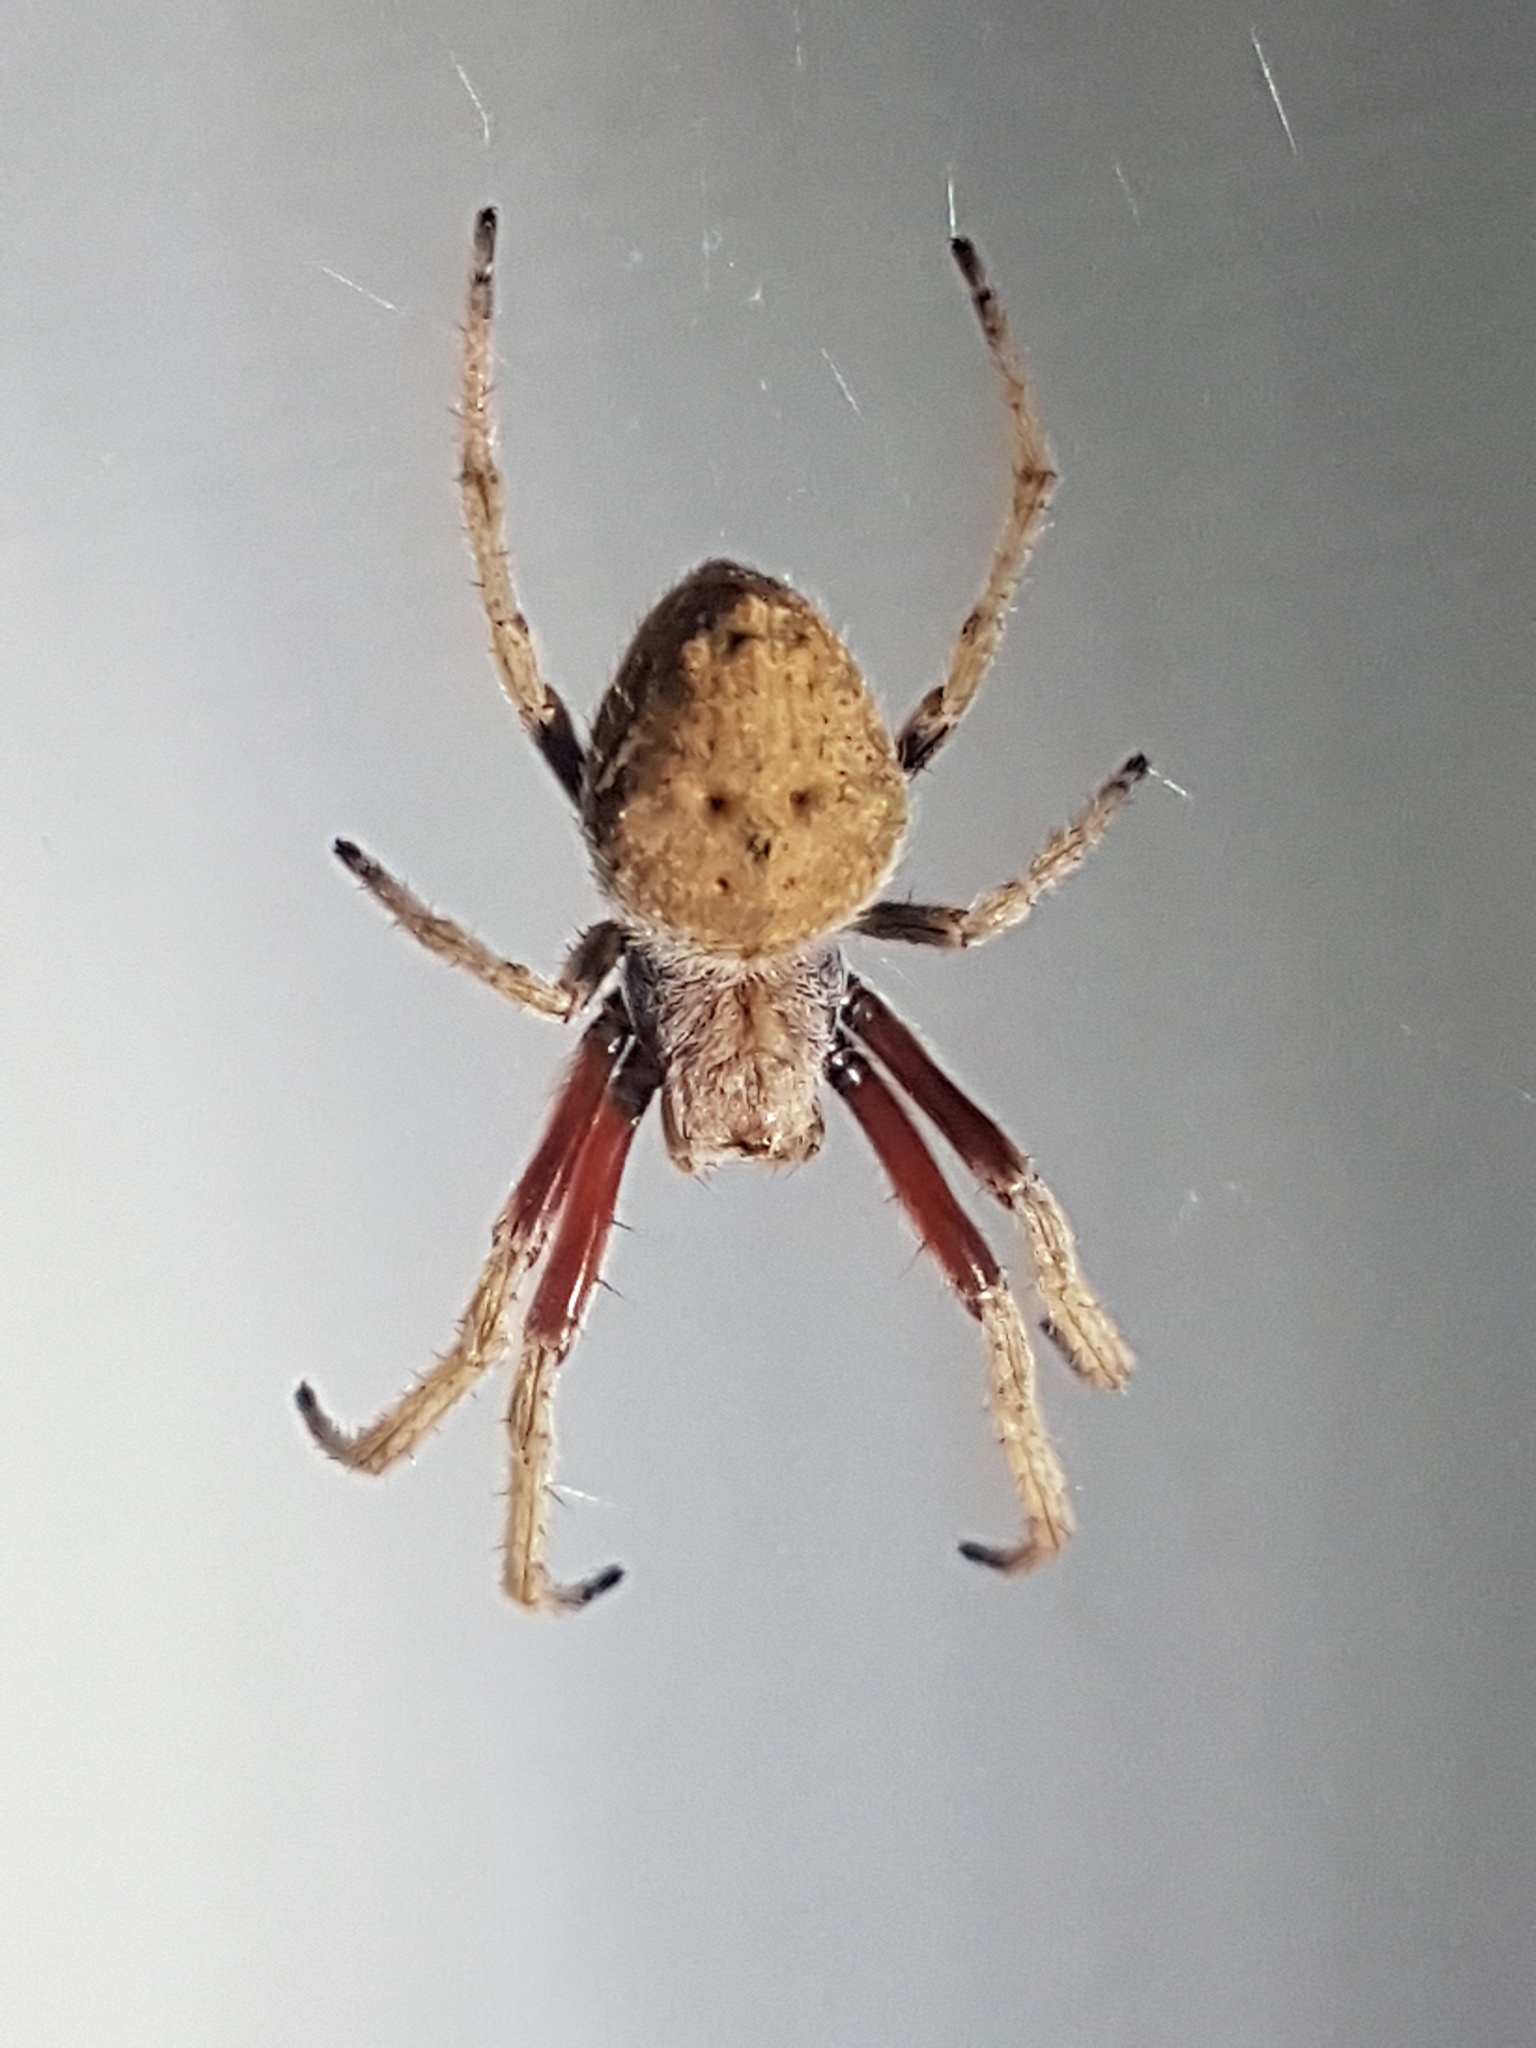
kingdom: Animalia
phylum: Arthropoda
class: Arachnida
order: Araneae
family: Araneidae
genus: Eriophora
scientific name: Eriophora pustulosa
